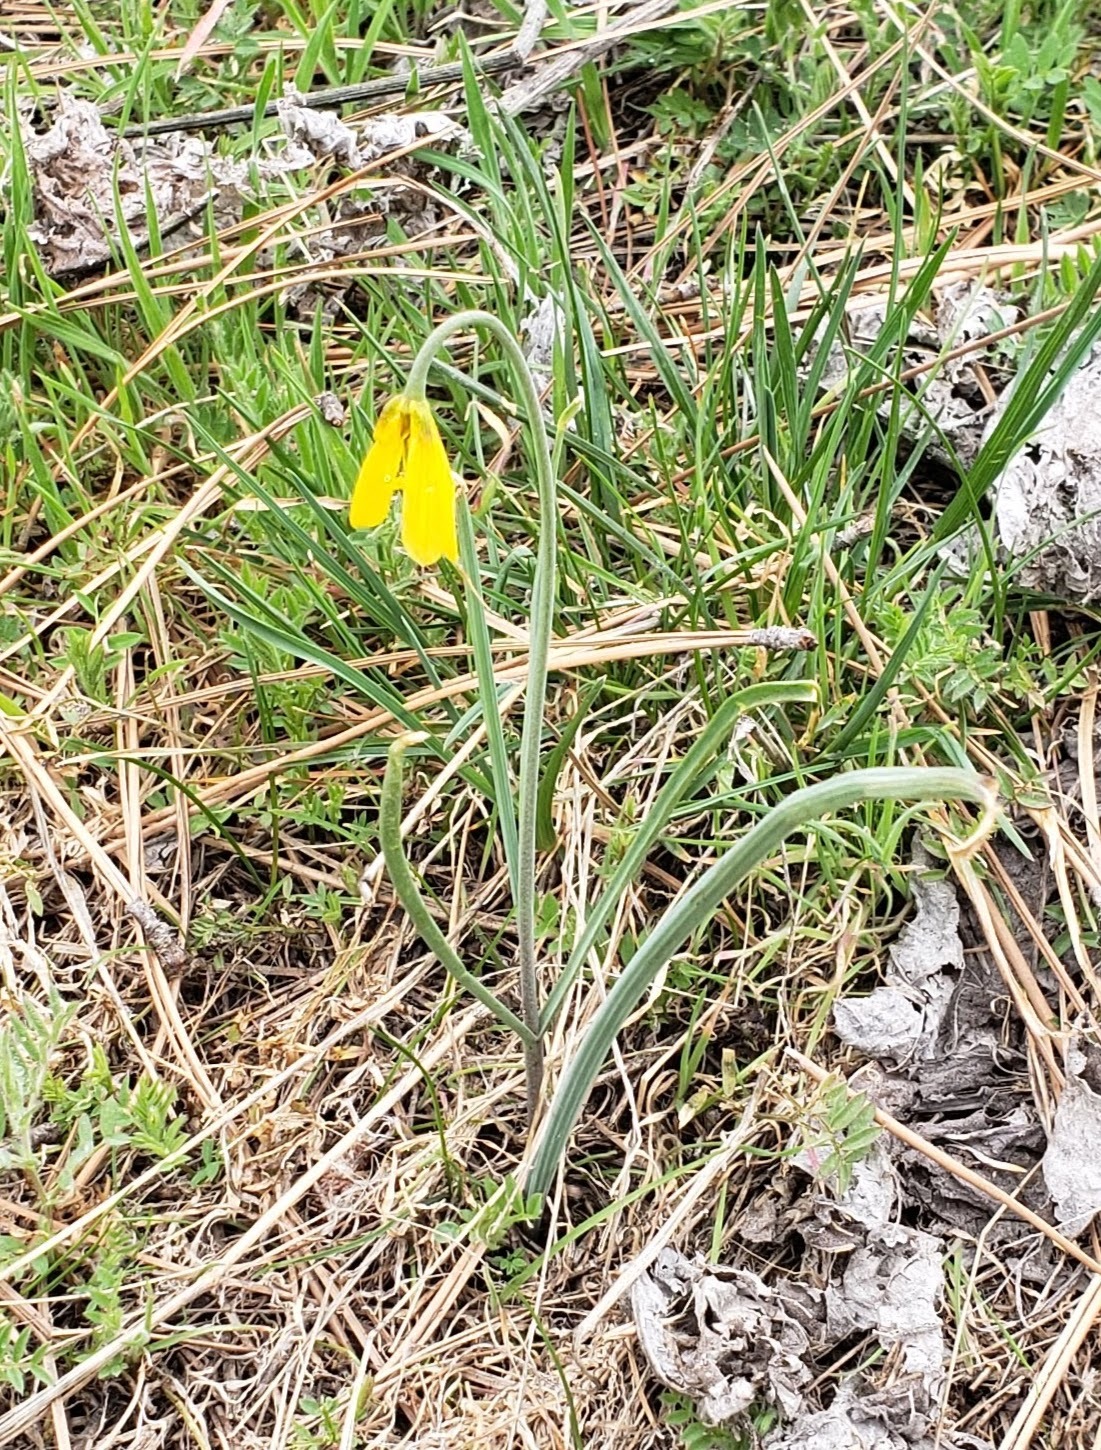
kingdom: Plantae
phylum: Tracheophyta
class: Liliopsida
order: Liliales
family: Liliaceae
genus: Fritillaria
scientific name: Fritillaria pudica
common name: Yellow fritillary
